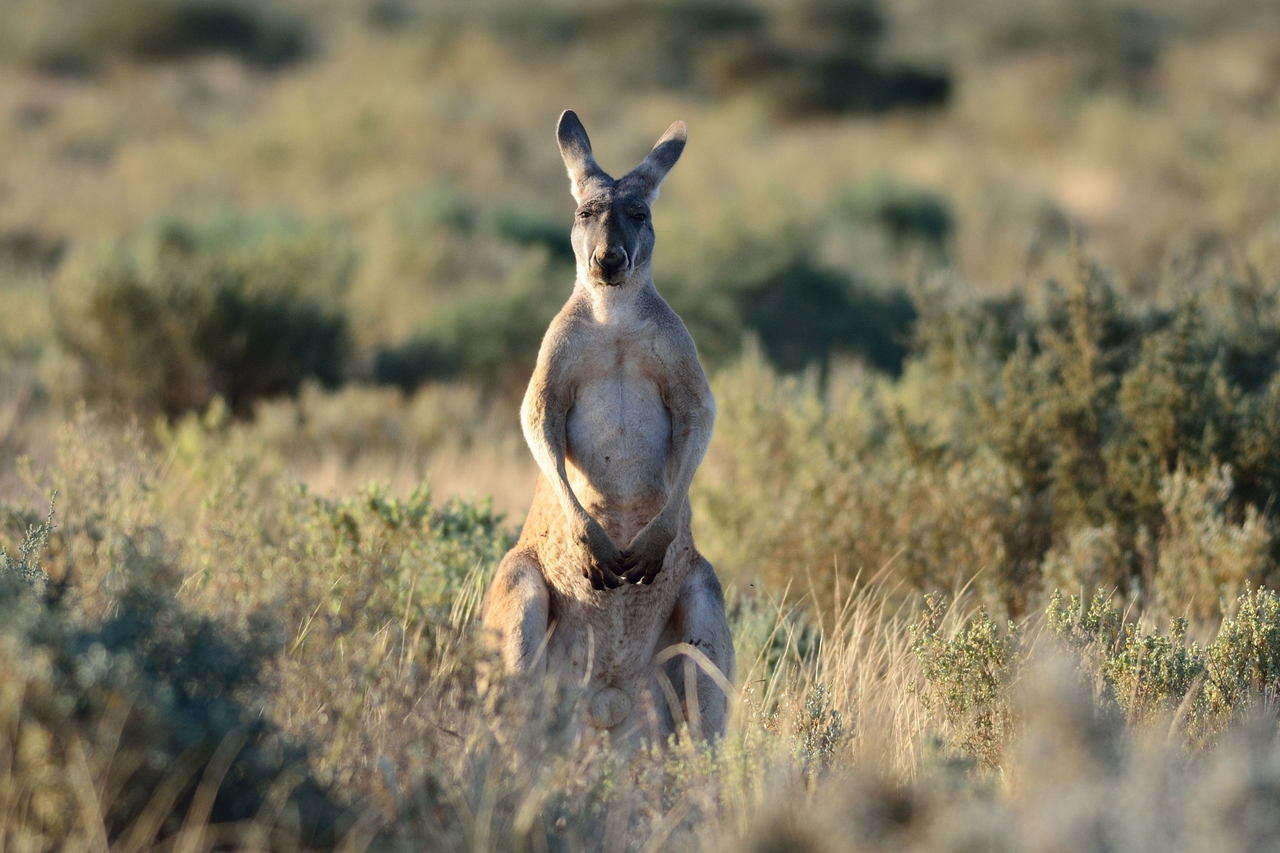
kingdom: Animalia
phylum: Chordata
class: Mammalia
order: Diprotodontia
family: Macropodidae
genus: Macropus
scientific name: Macropus rufus
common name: Red kangaroo
